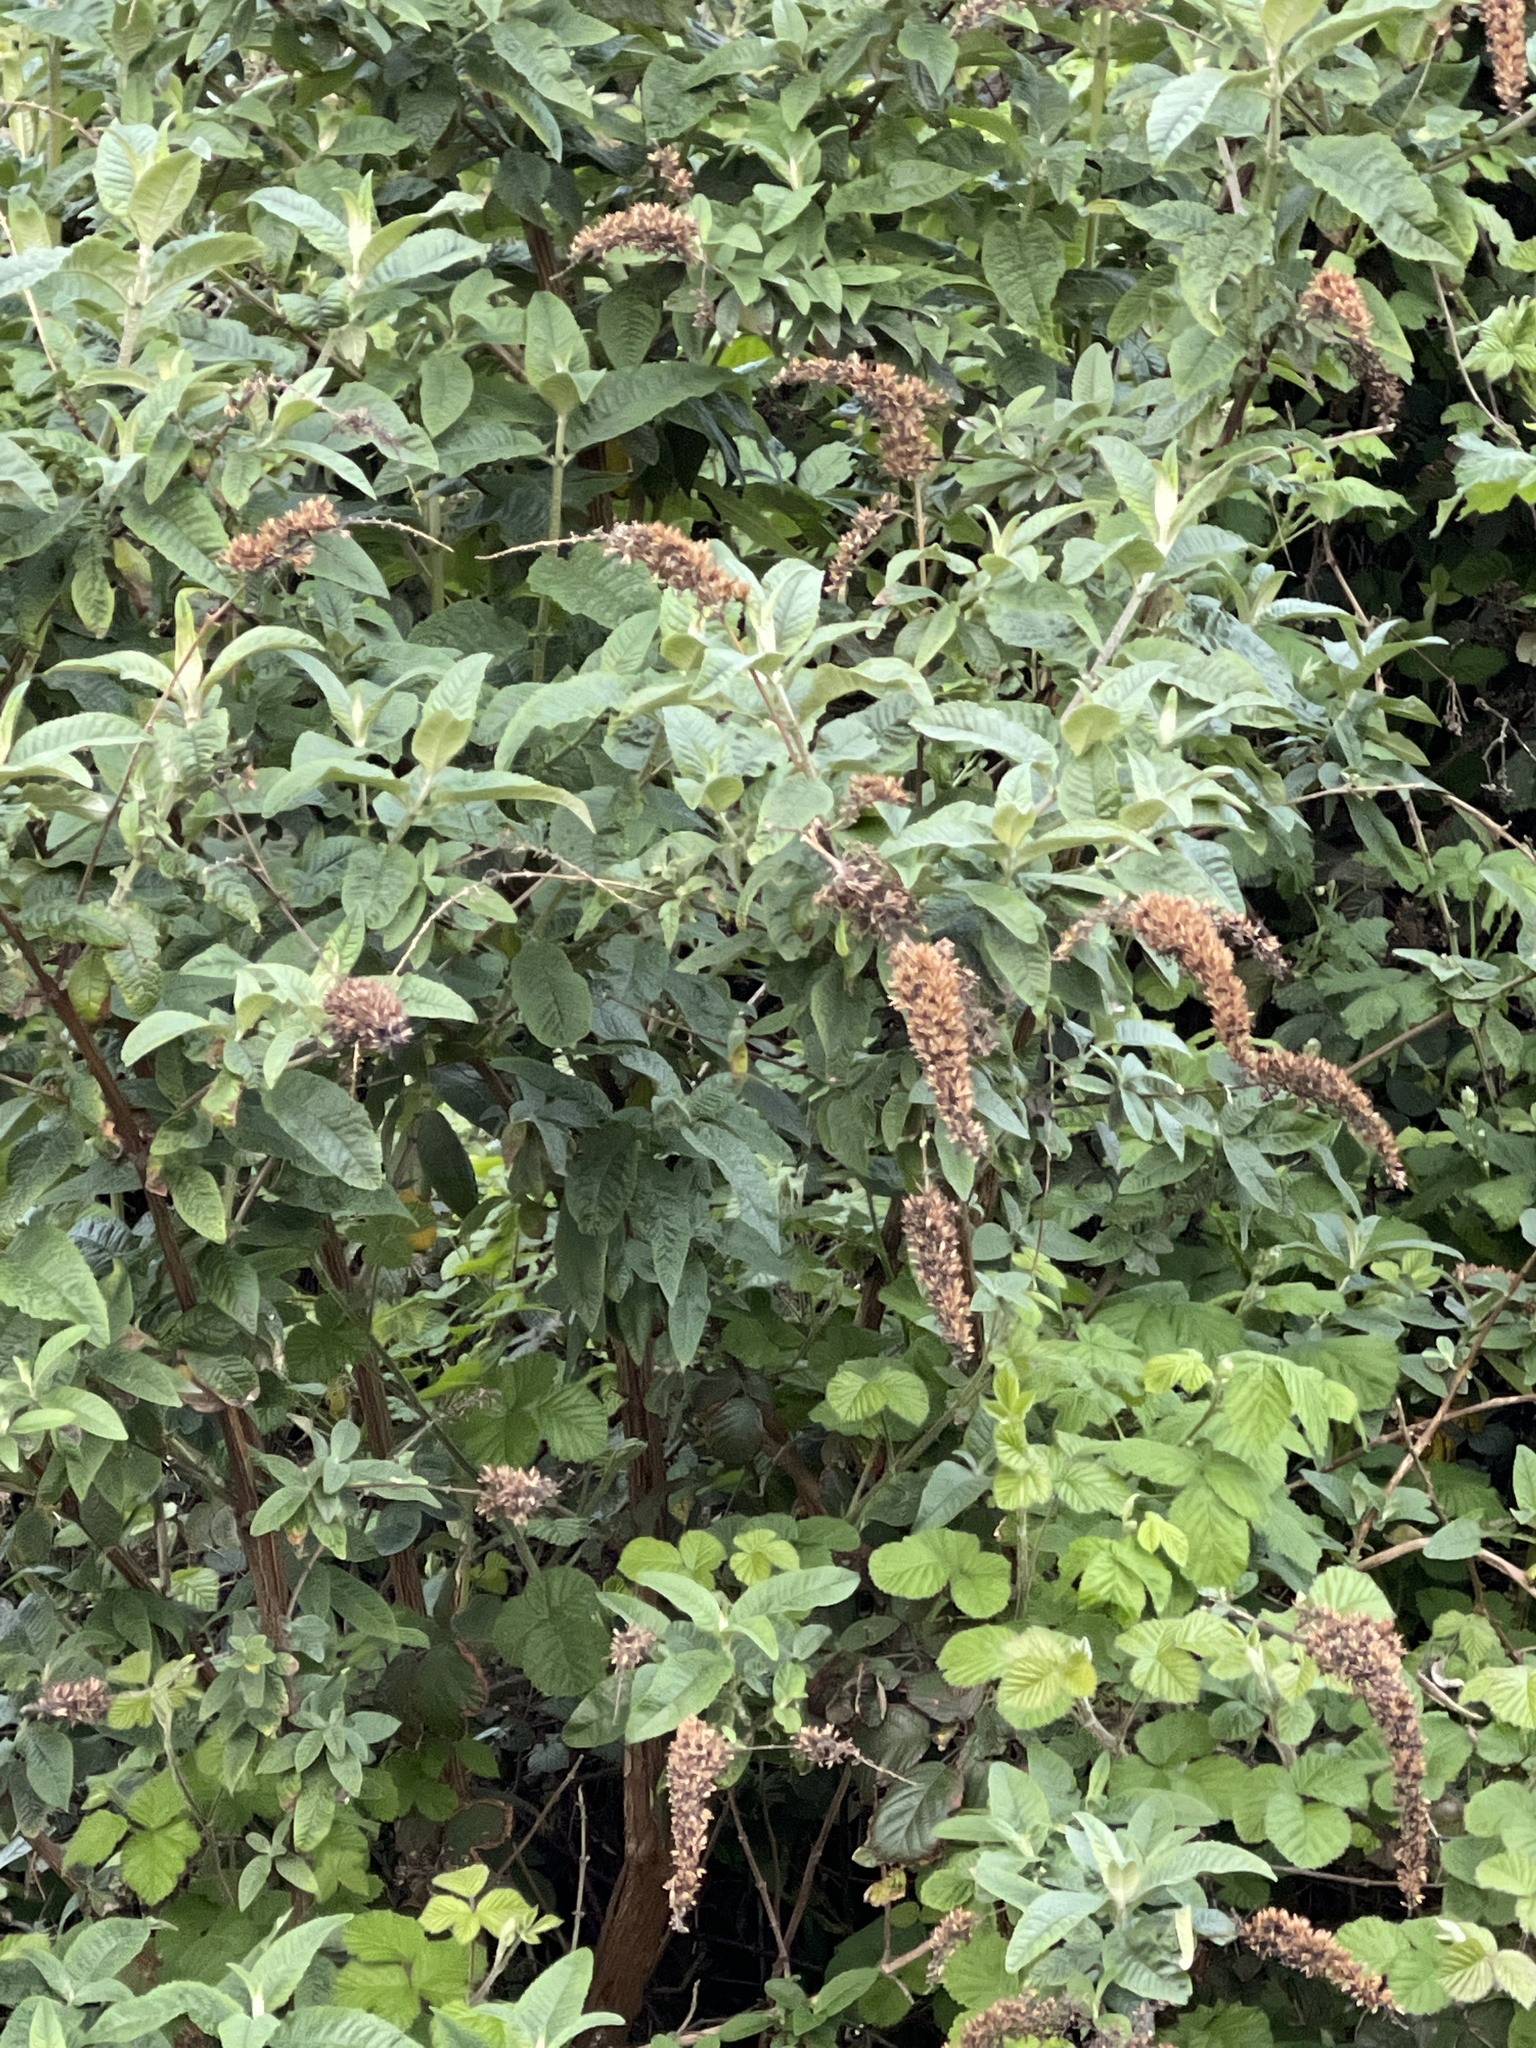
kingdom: Plantae
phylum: Tracheophyta
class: Magnoliopsida
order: Lamiales
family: Scrophulariaceae
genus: Buddleja
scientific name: Buddleja davidii
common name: Butterfly-bush
